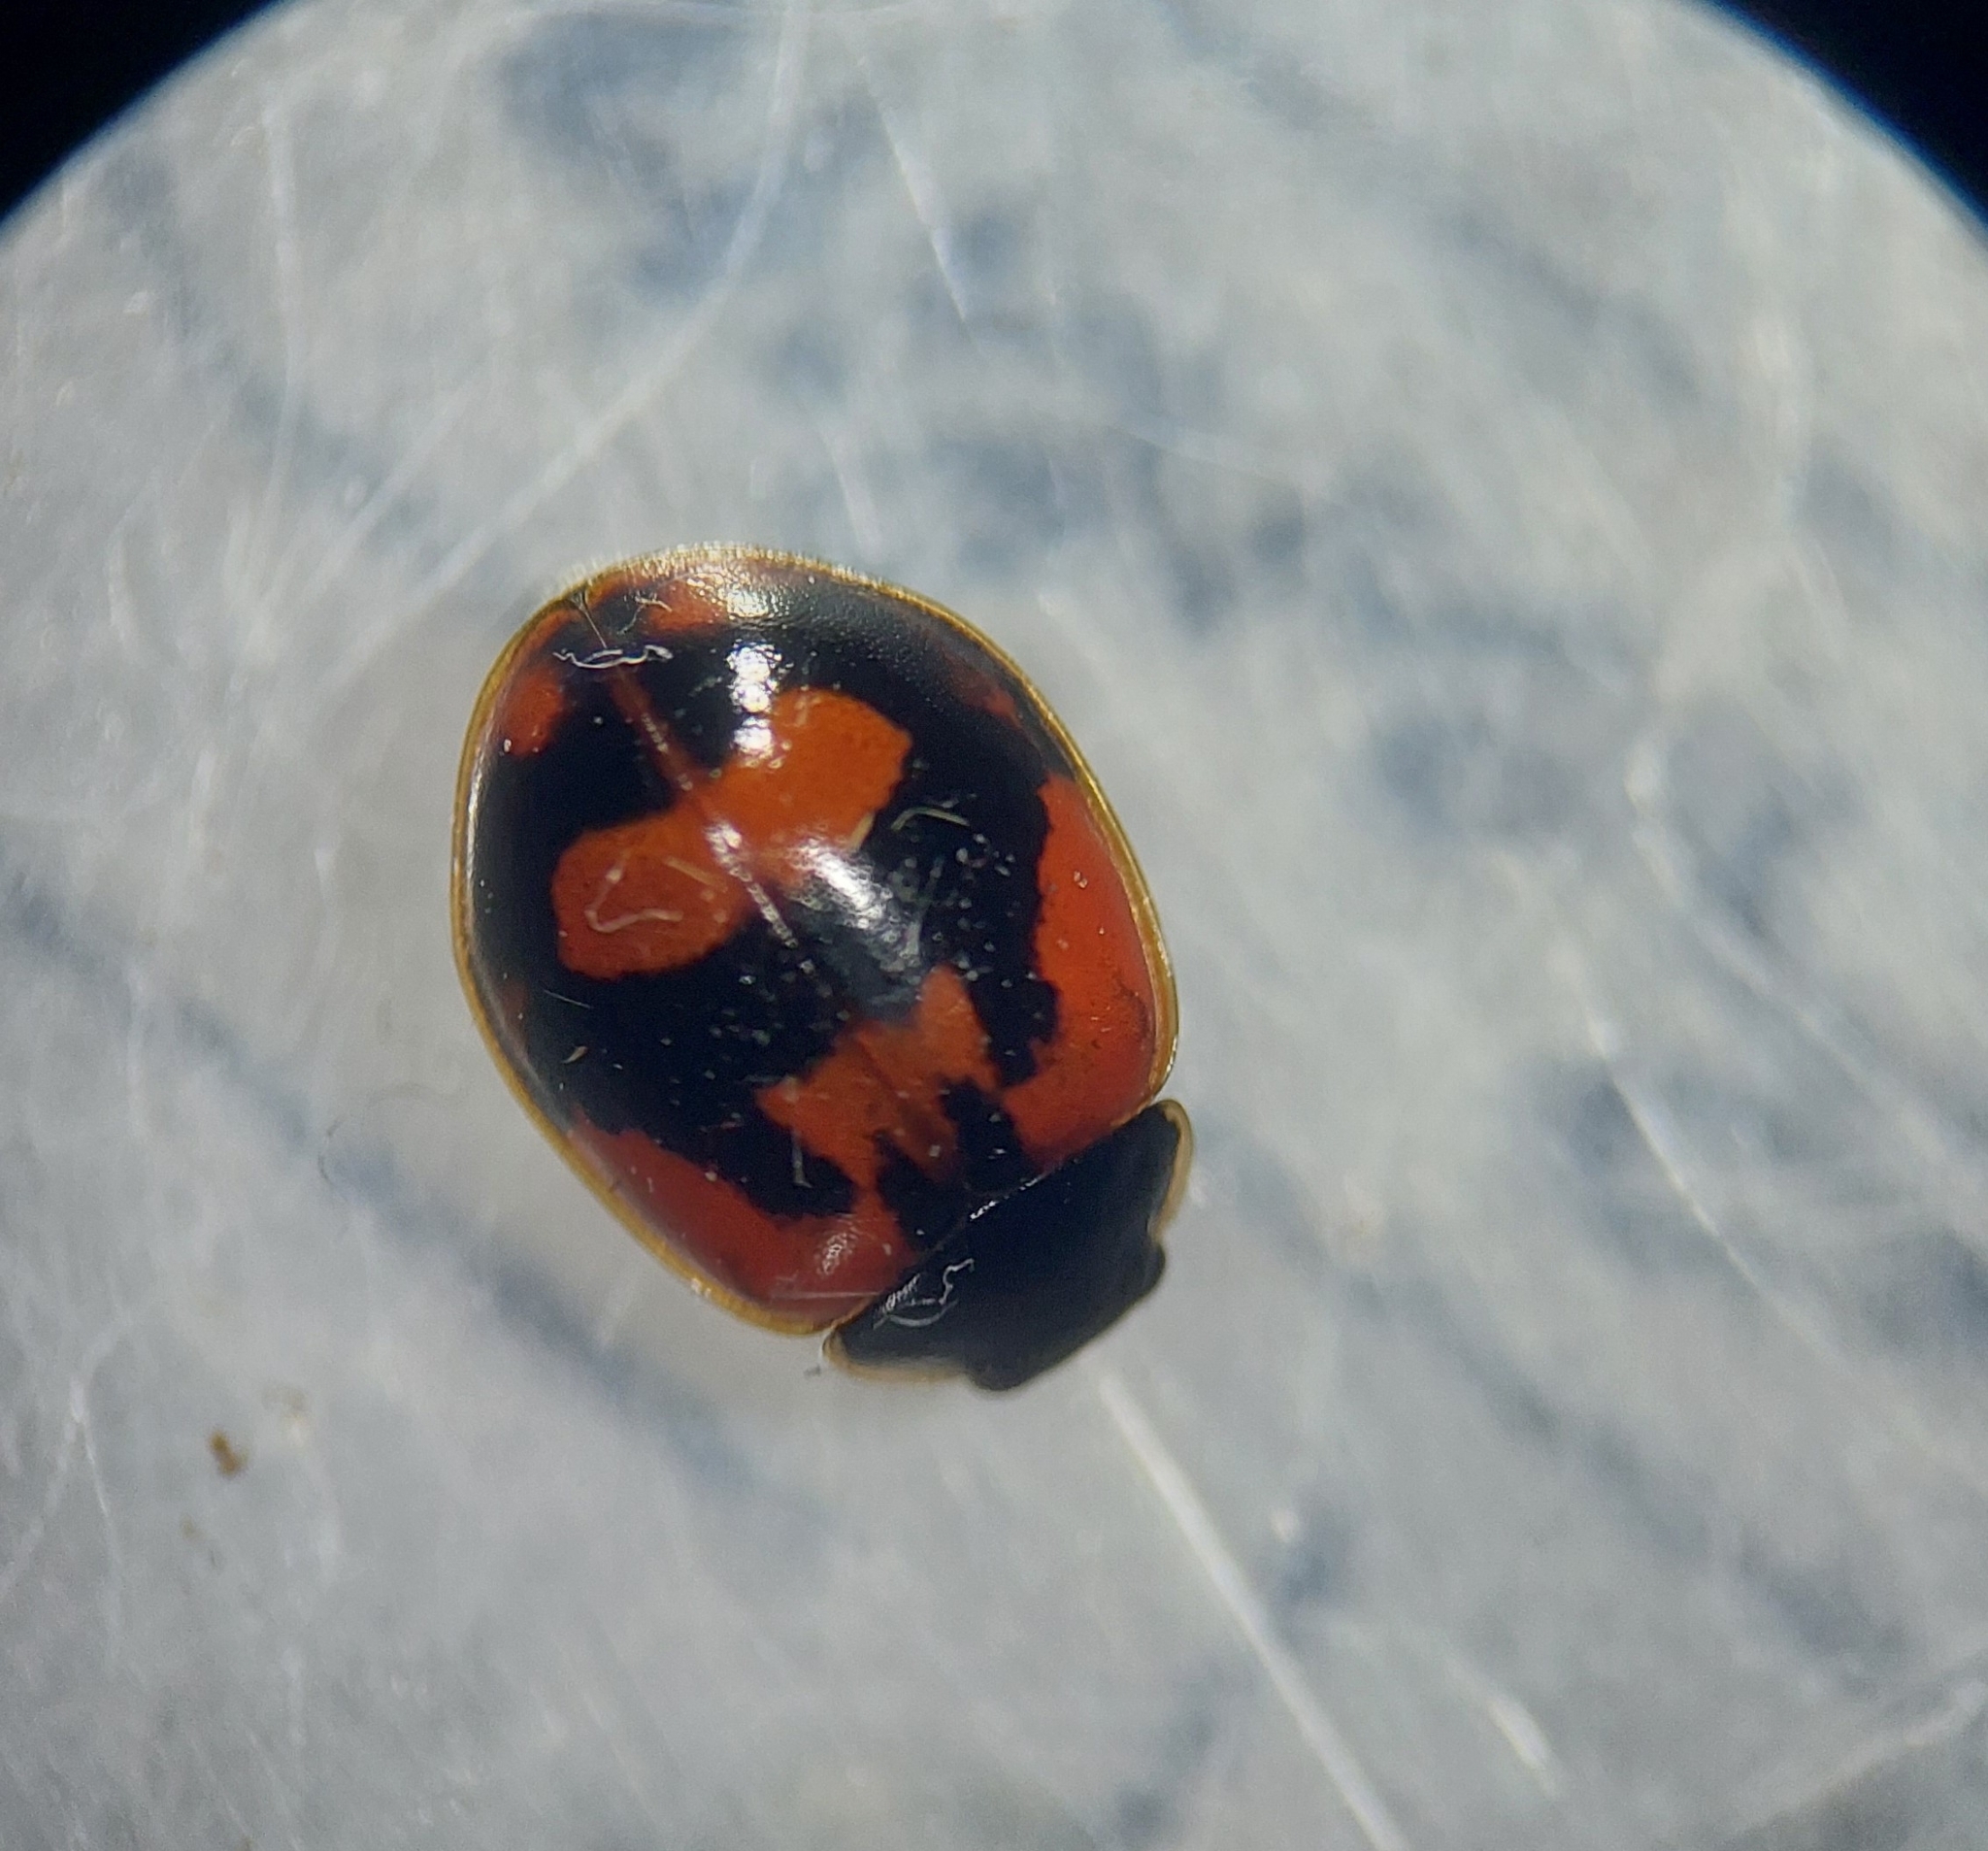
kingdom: Animalia
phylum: Arthropoda
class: Insecta
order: Coleoptera
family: Coccinellidae
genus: Adalia
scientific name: Adalia bipunctata
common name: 2-spot ladybird
